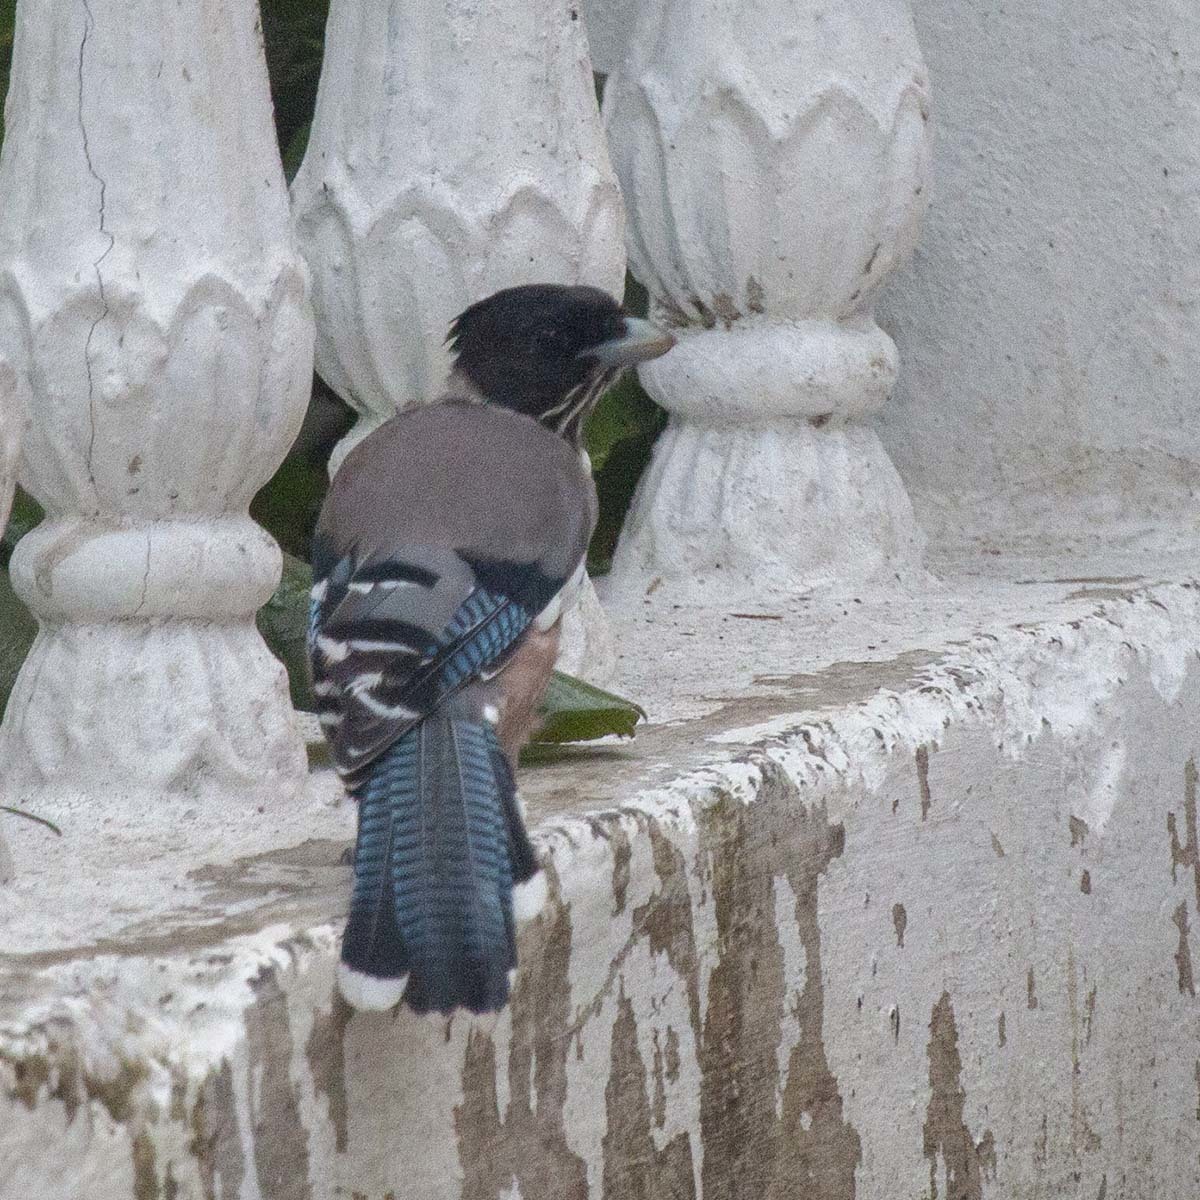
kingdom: Animalia
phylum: Chordata
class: Aves
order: Passeriformes
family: Corvidae
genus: Garrulus
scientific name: Garrulus lanceolatus
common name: Black-headed jay
